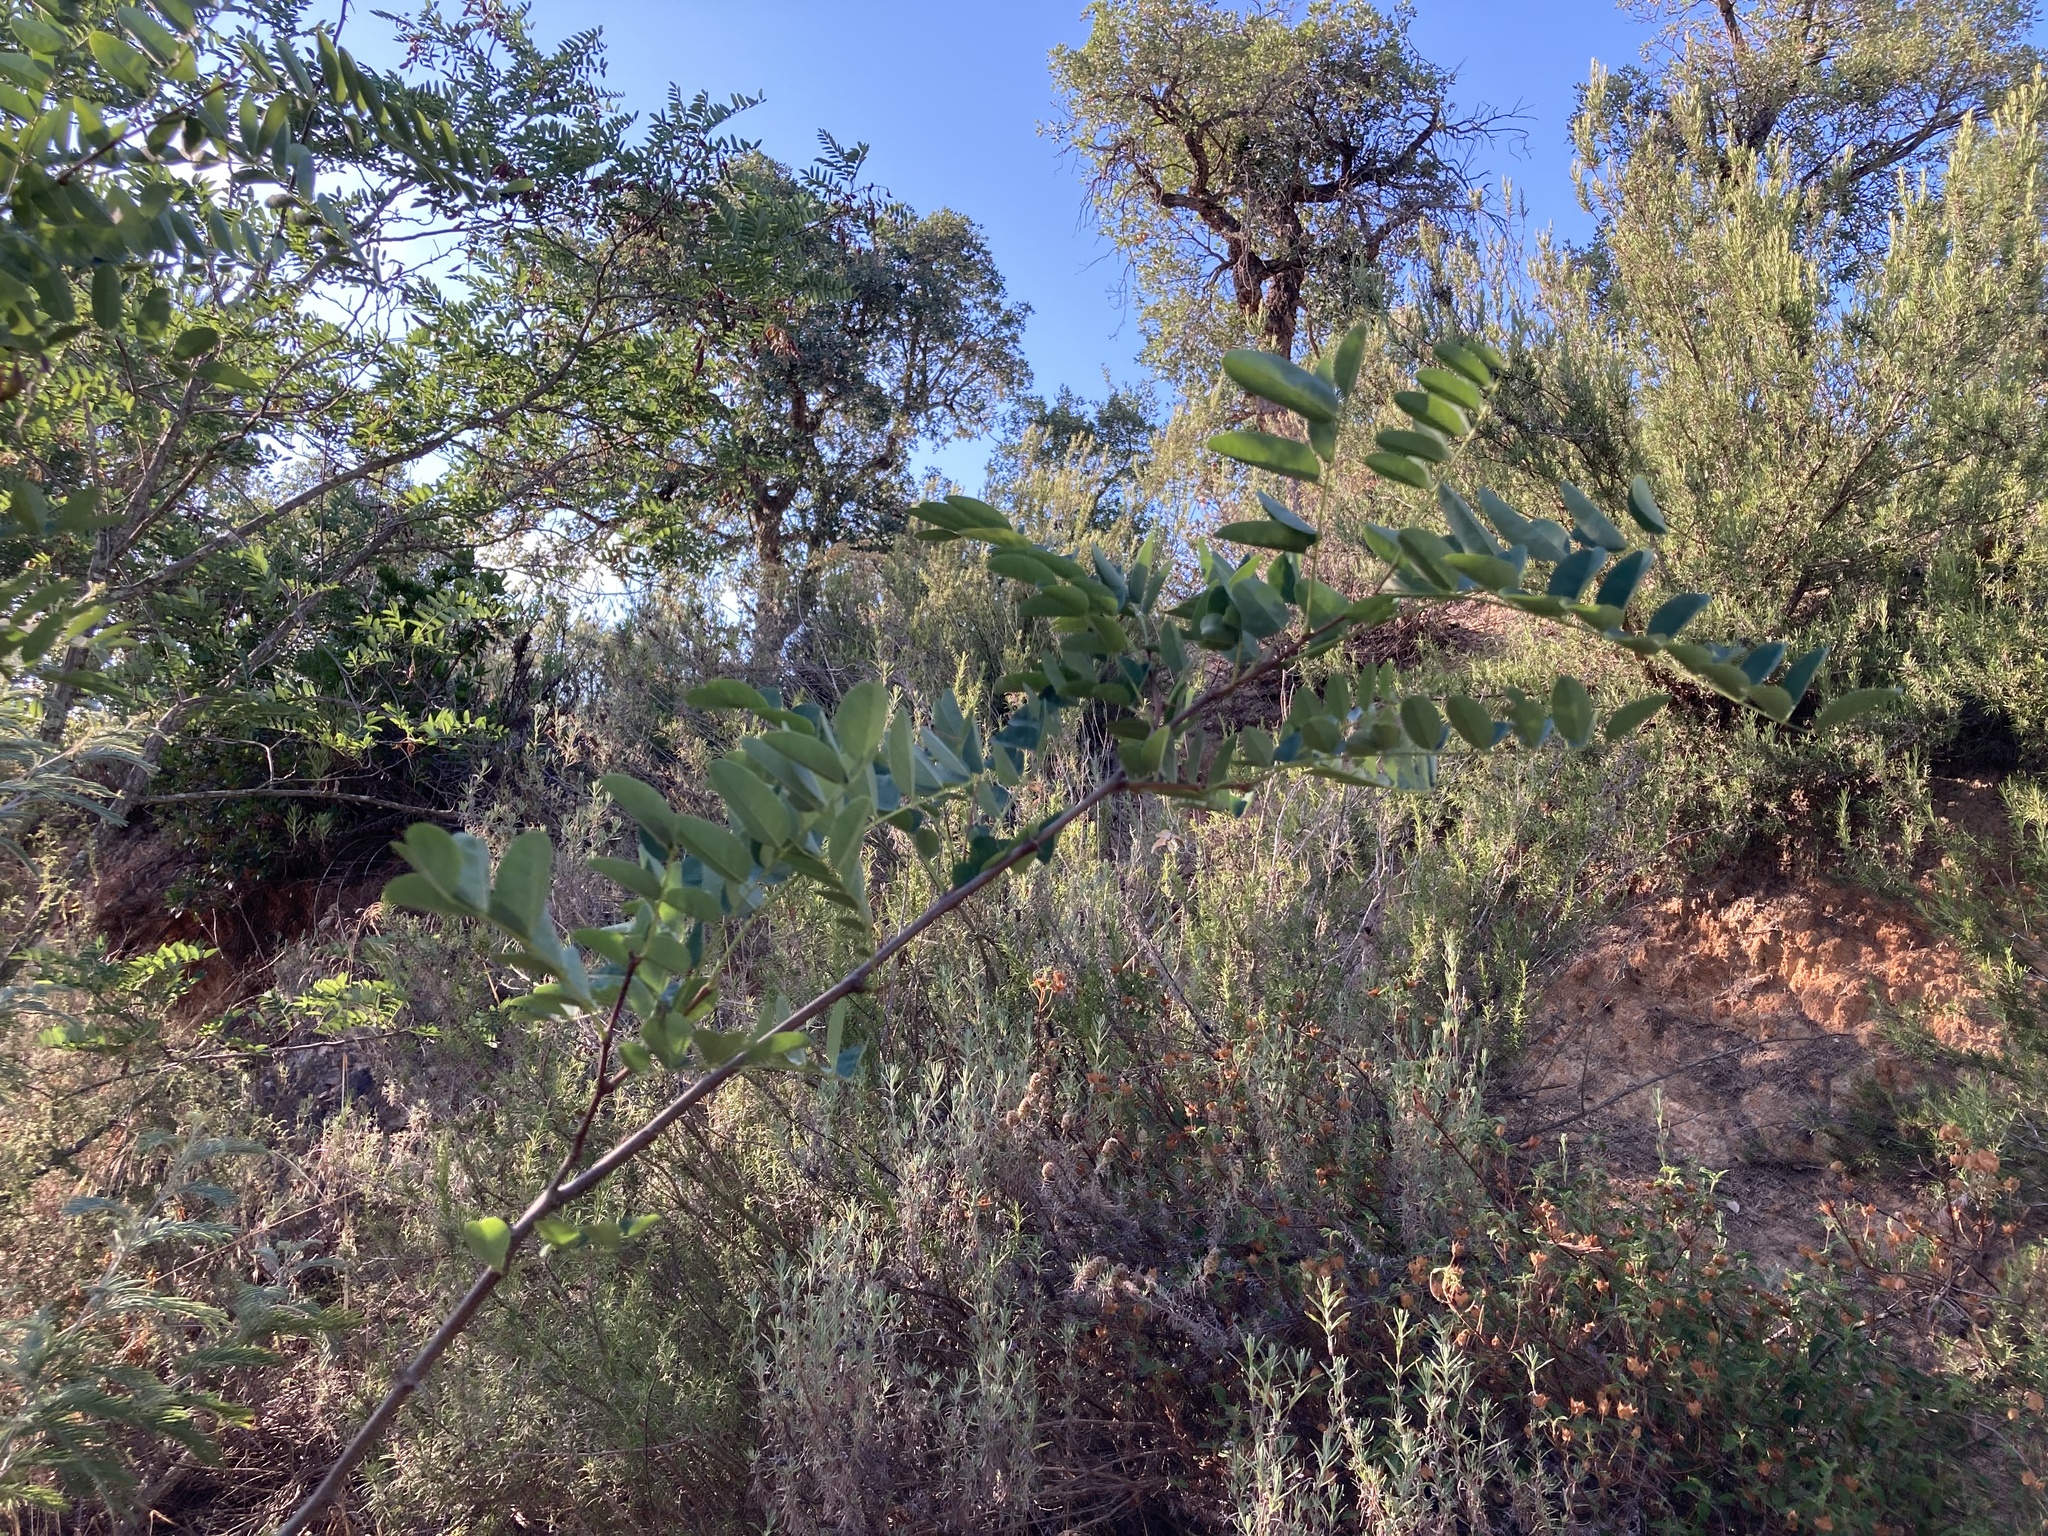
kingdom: Plantae
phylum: Tracheophyta
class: Magnoliopsida
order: Fabales
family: Fabaceae
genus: Robinia
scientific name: Robinia pseudoacacia
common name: Black locust
